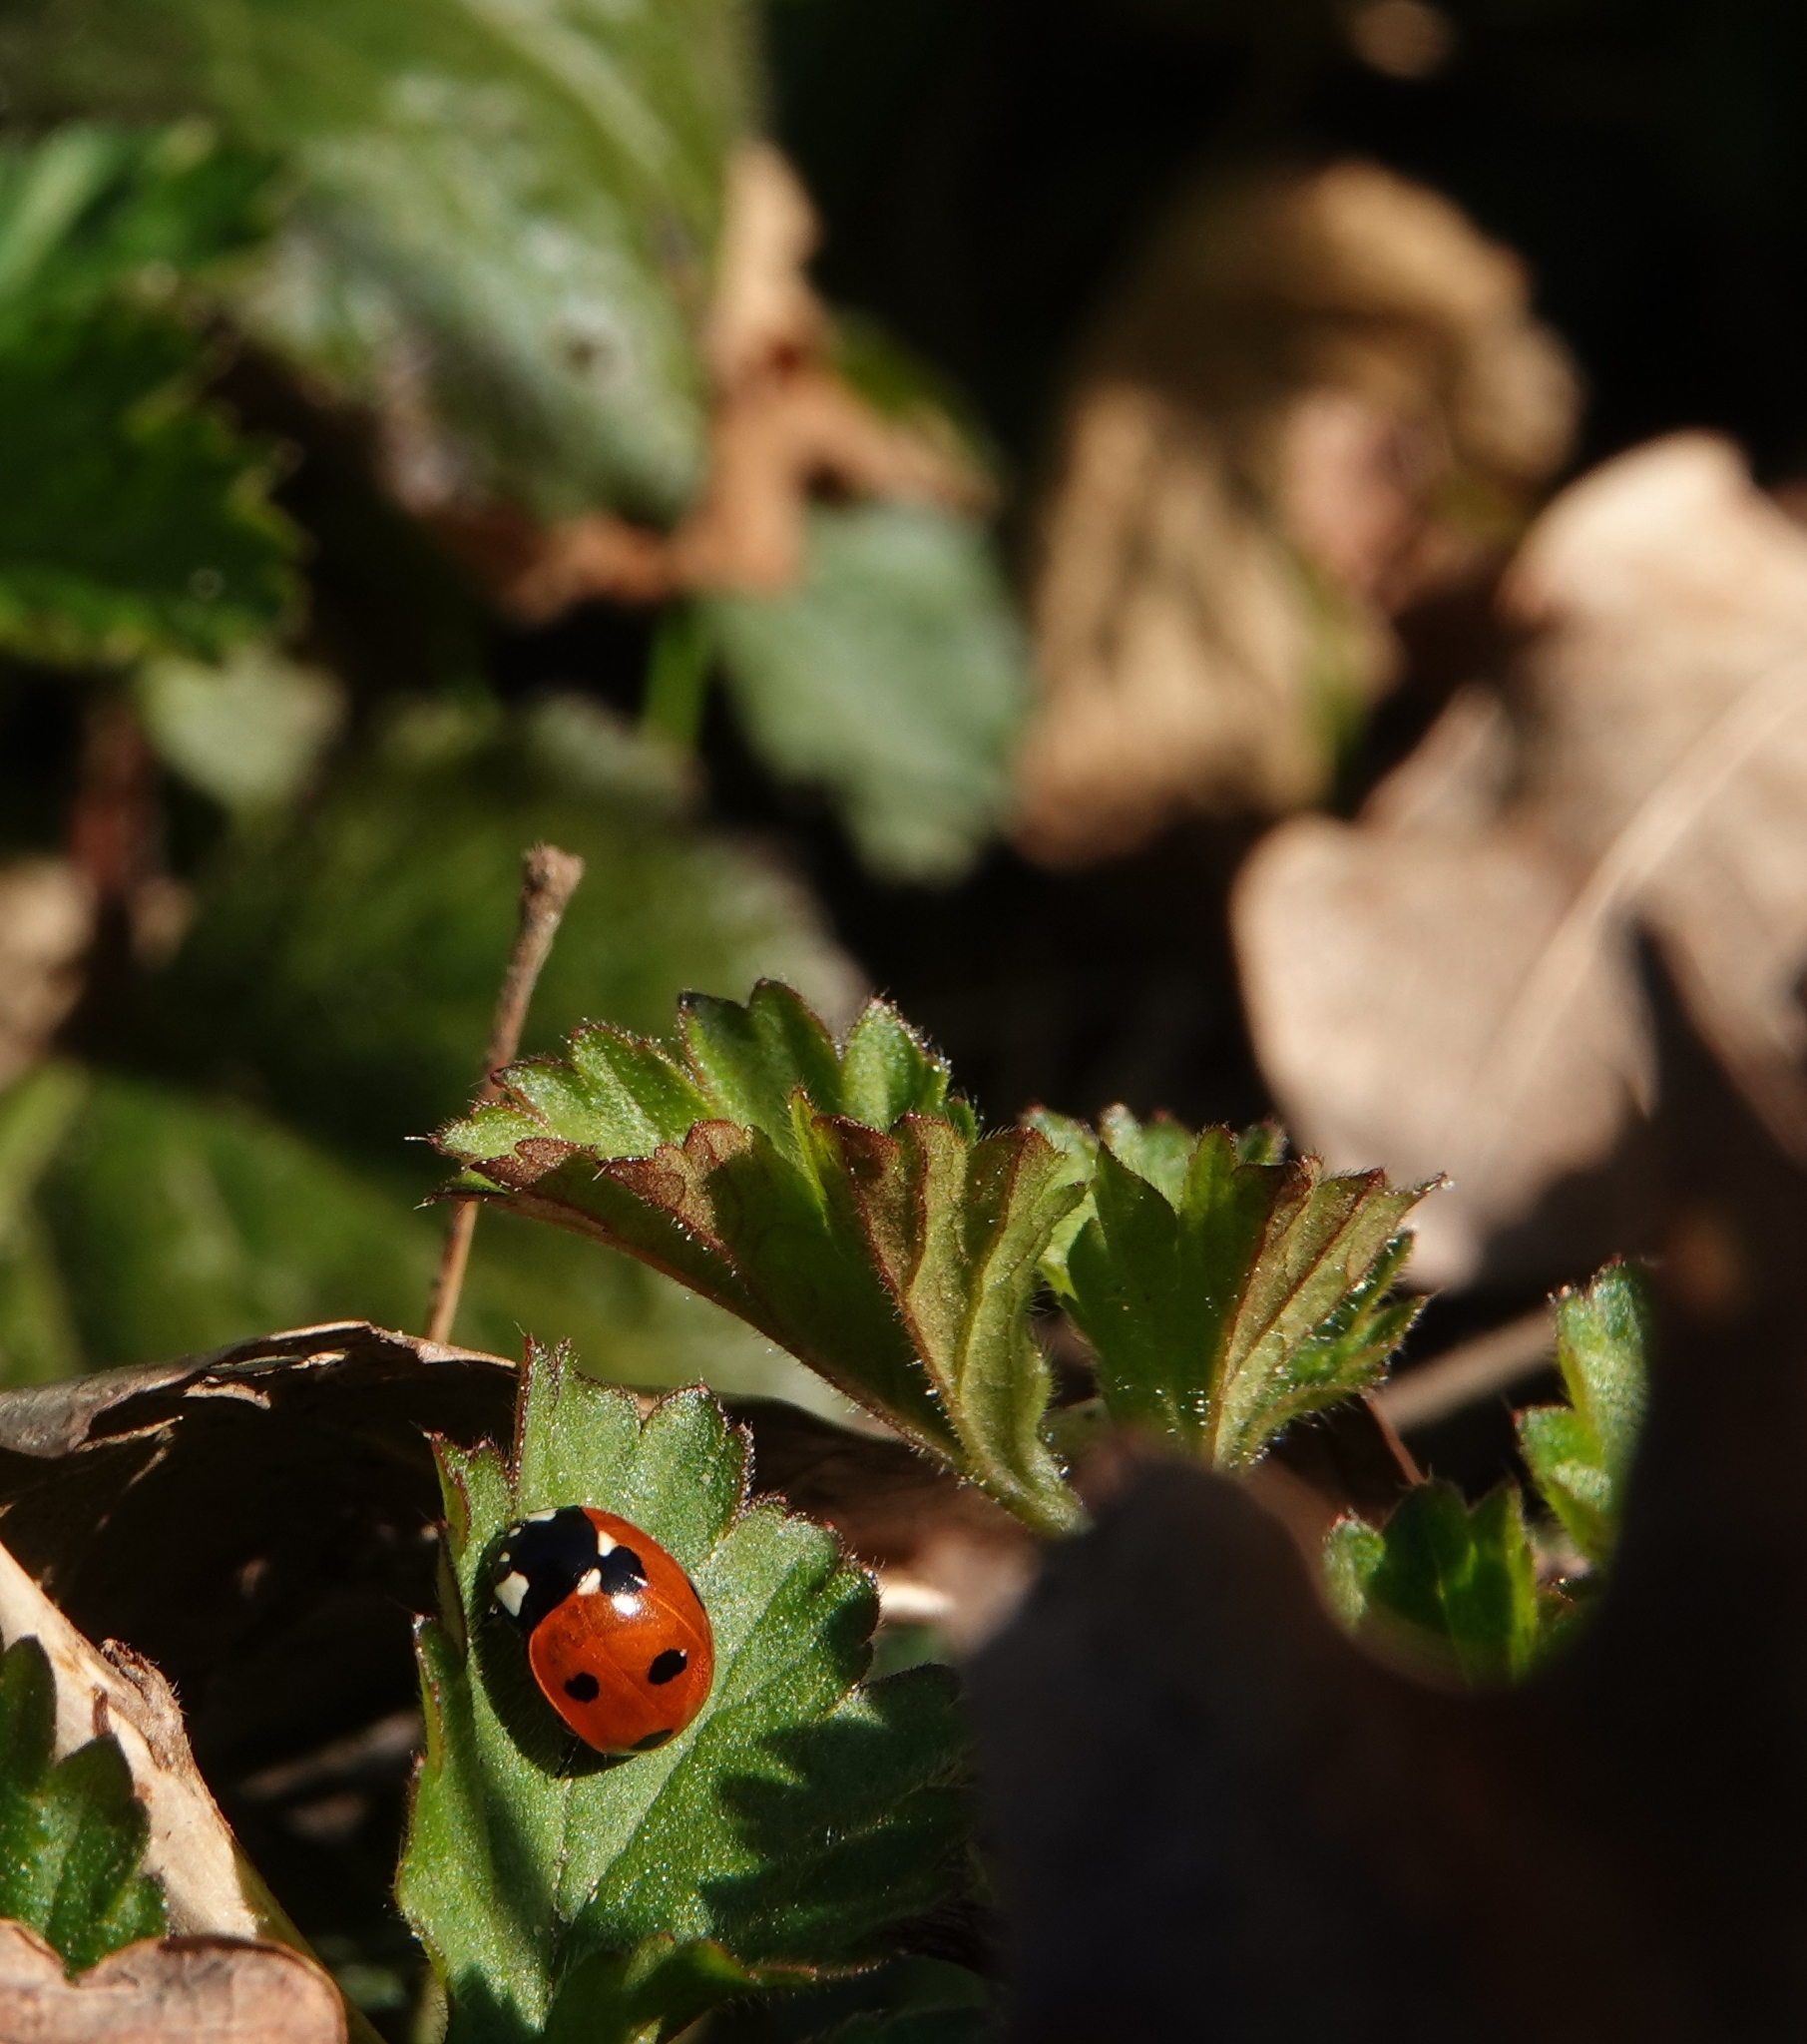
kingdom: Animalia
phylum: Arthropoda
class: Insecta
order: Coleoptera
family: Coccinellidae
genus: Coccinella
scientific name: Coccinella septempunctata
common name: Sevenspotted lady beetle
